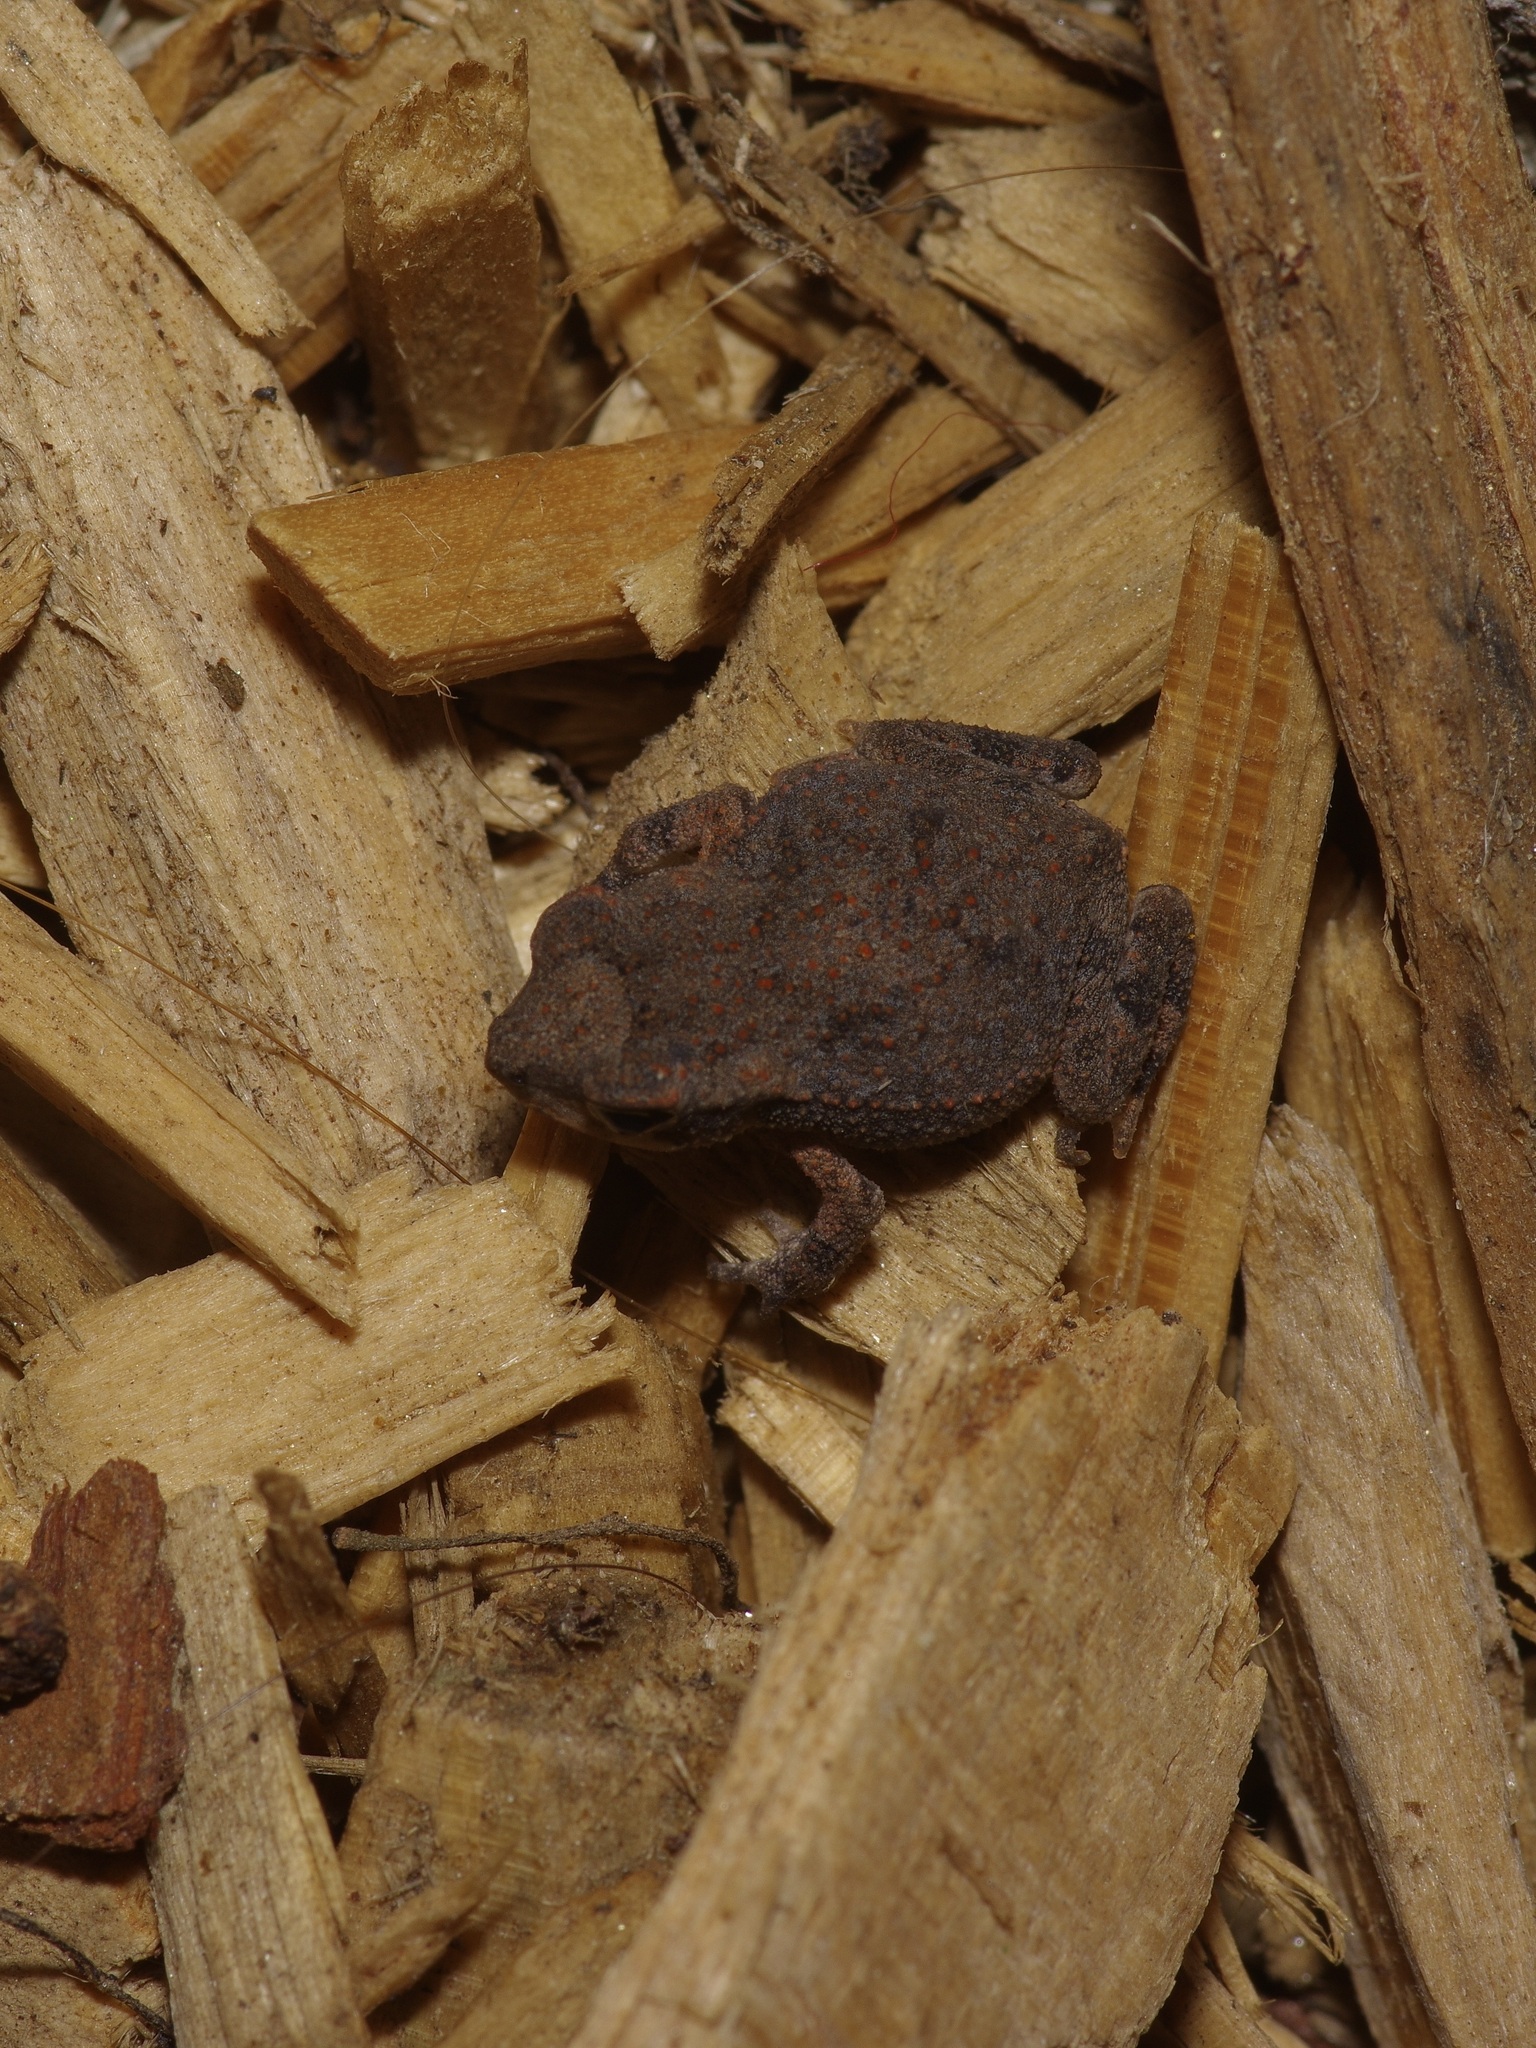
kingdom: Animalia
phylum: Chordata
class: Amphibia
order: Anura
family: Bufonidae
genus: Incilius
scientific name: Incilius nebulifer
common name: Gulf coast toad
